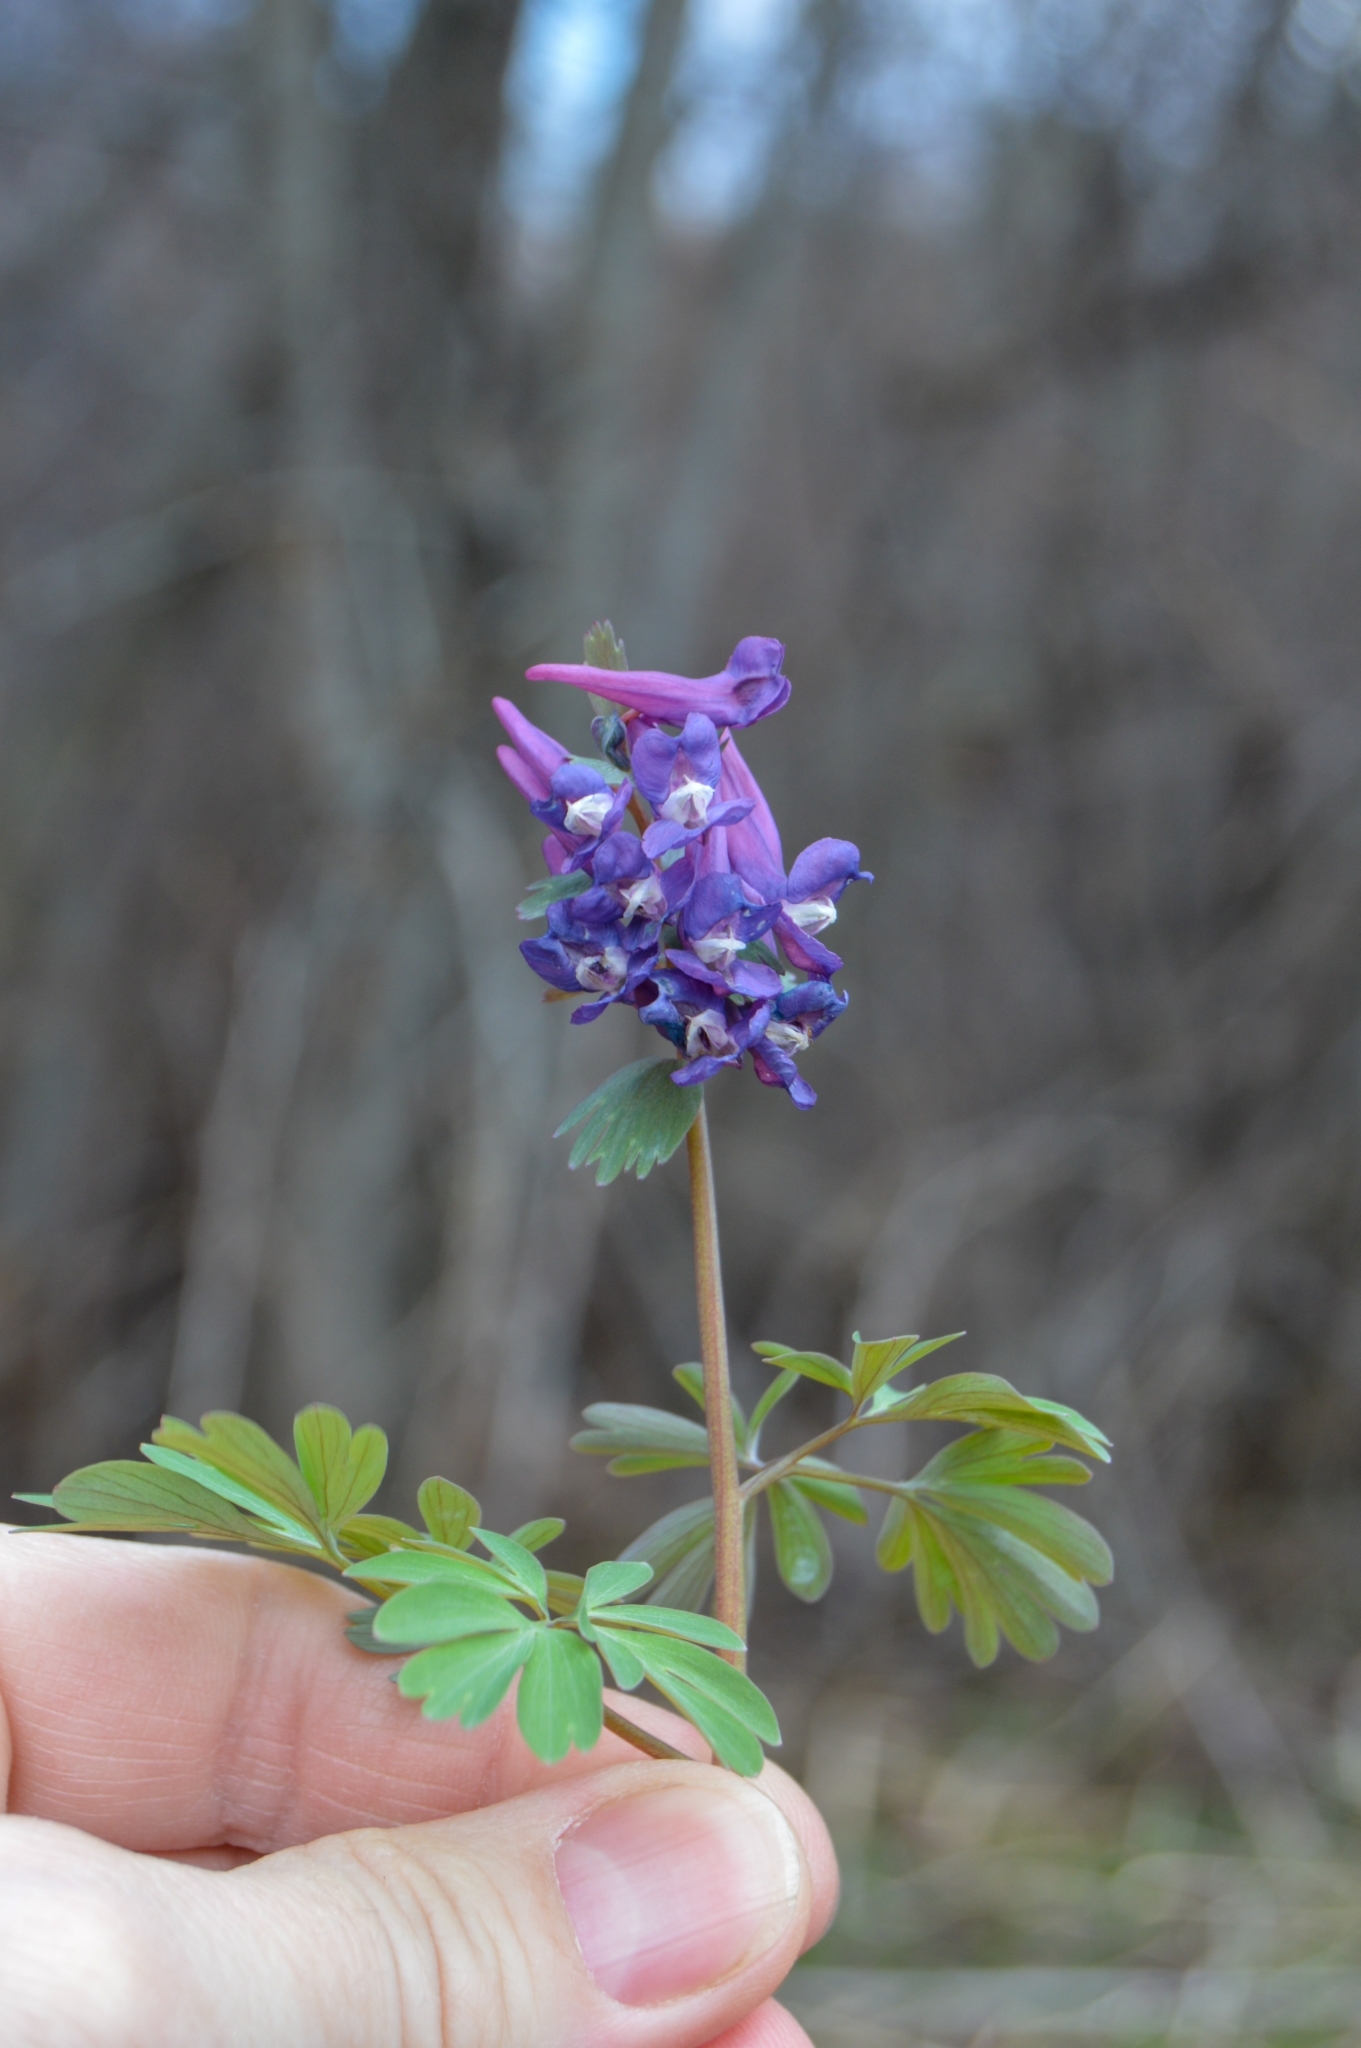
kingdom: Plantae
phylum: Tracheophyta
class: Magnoliopsida
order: Ranunculales
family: Papaveraceae
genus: Corydalis
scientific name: Corydalis solida
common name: Bird-in-a-bush
